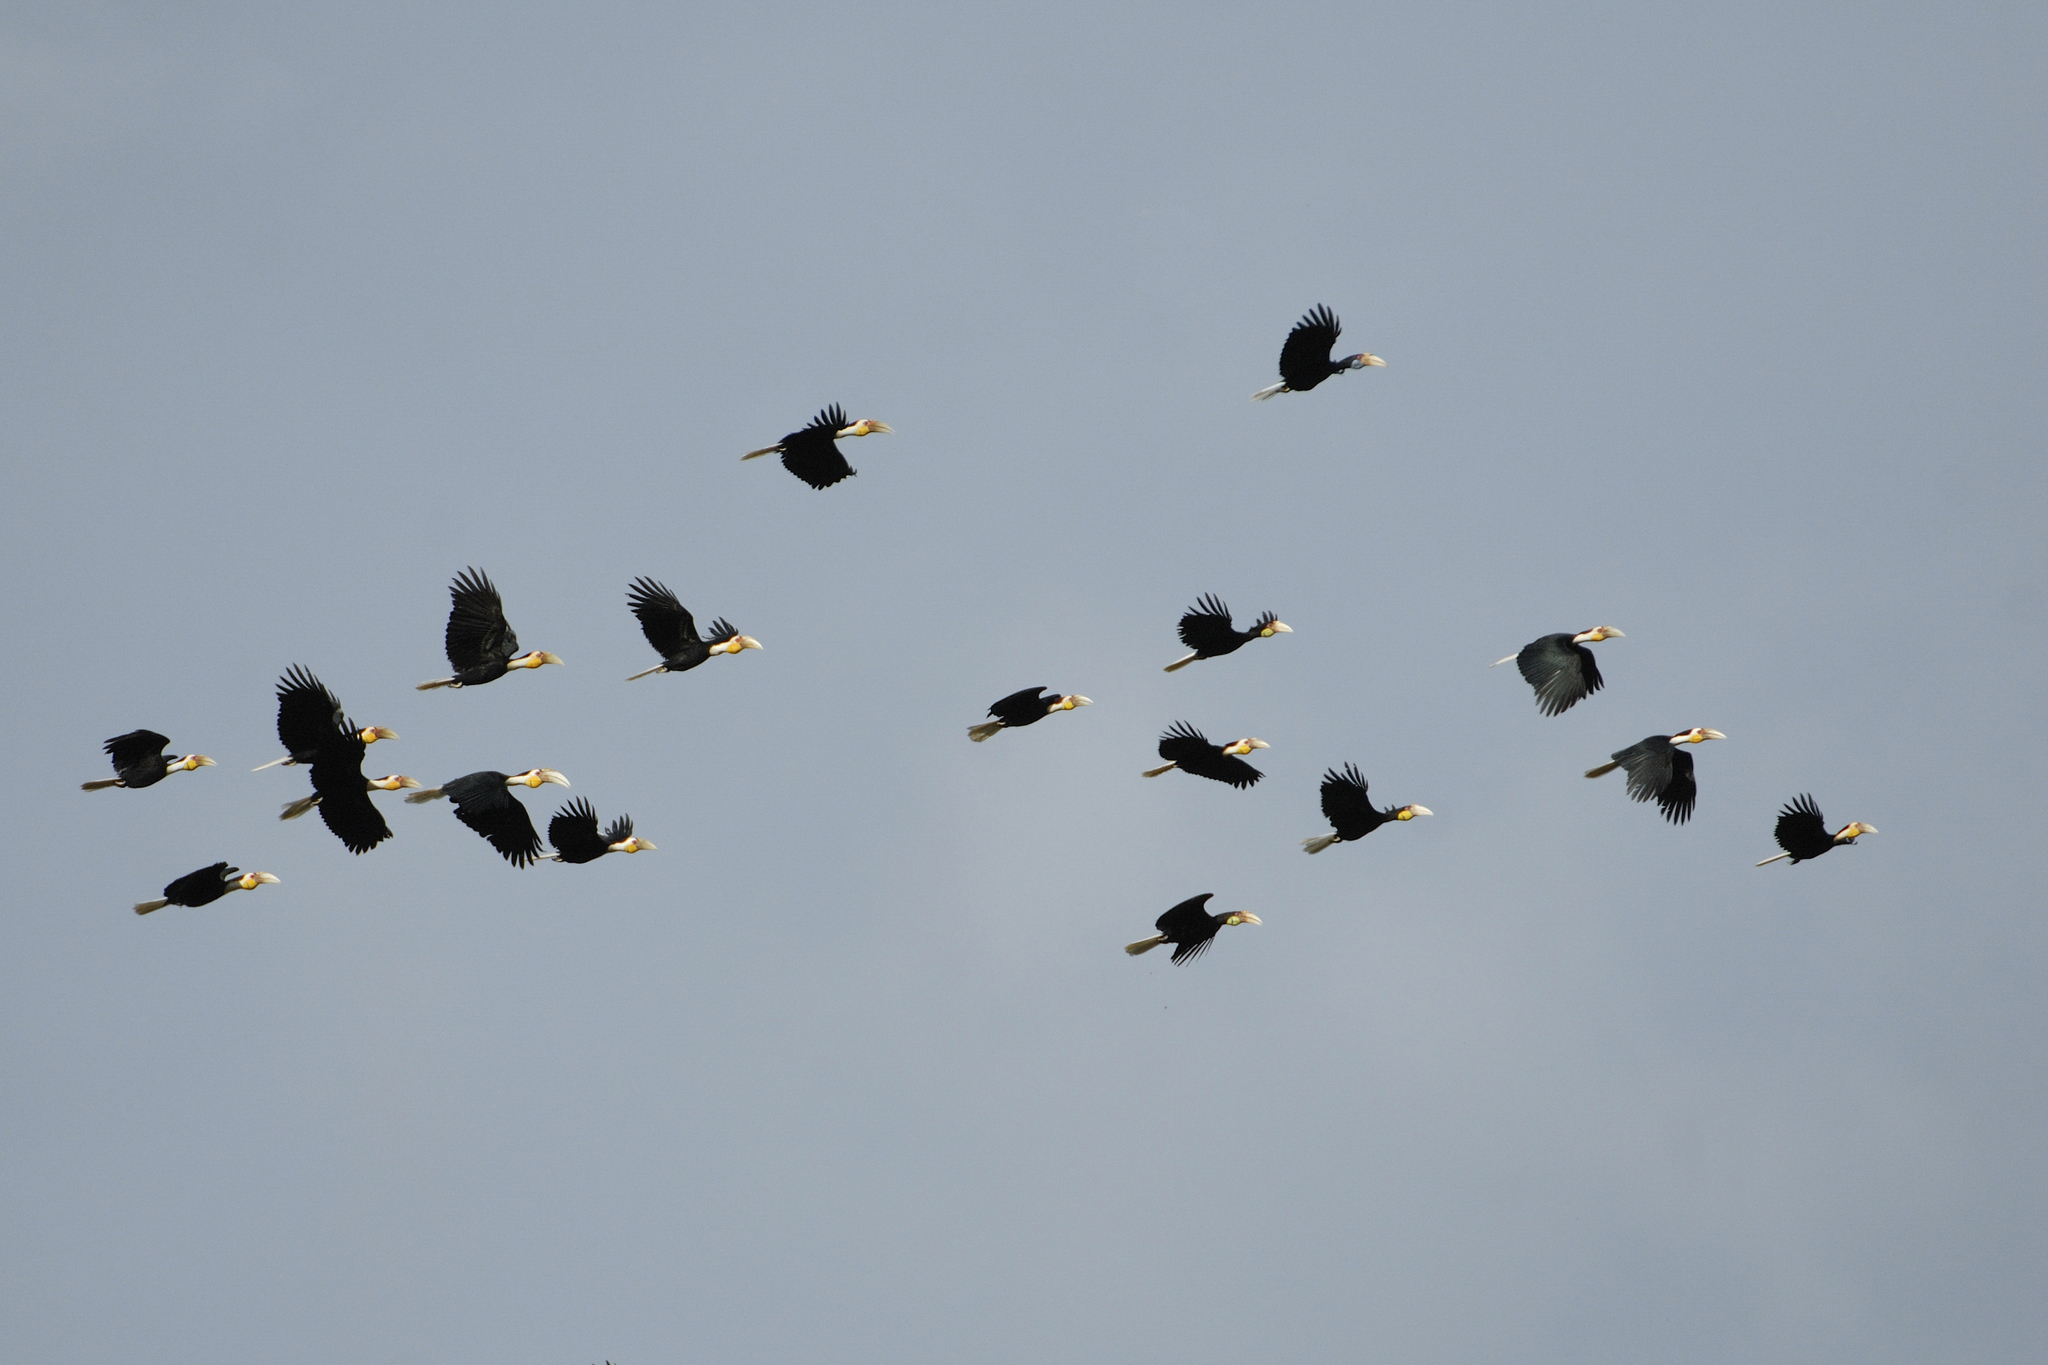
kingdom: Animalia
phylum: Chordata
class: Aves
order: Bucerotiformes
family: Bucerotidae
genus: Rhyticeros
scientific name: Rhyticeros undulatus
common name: Wreathed hornbill
